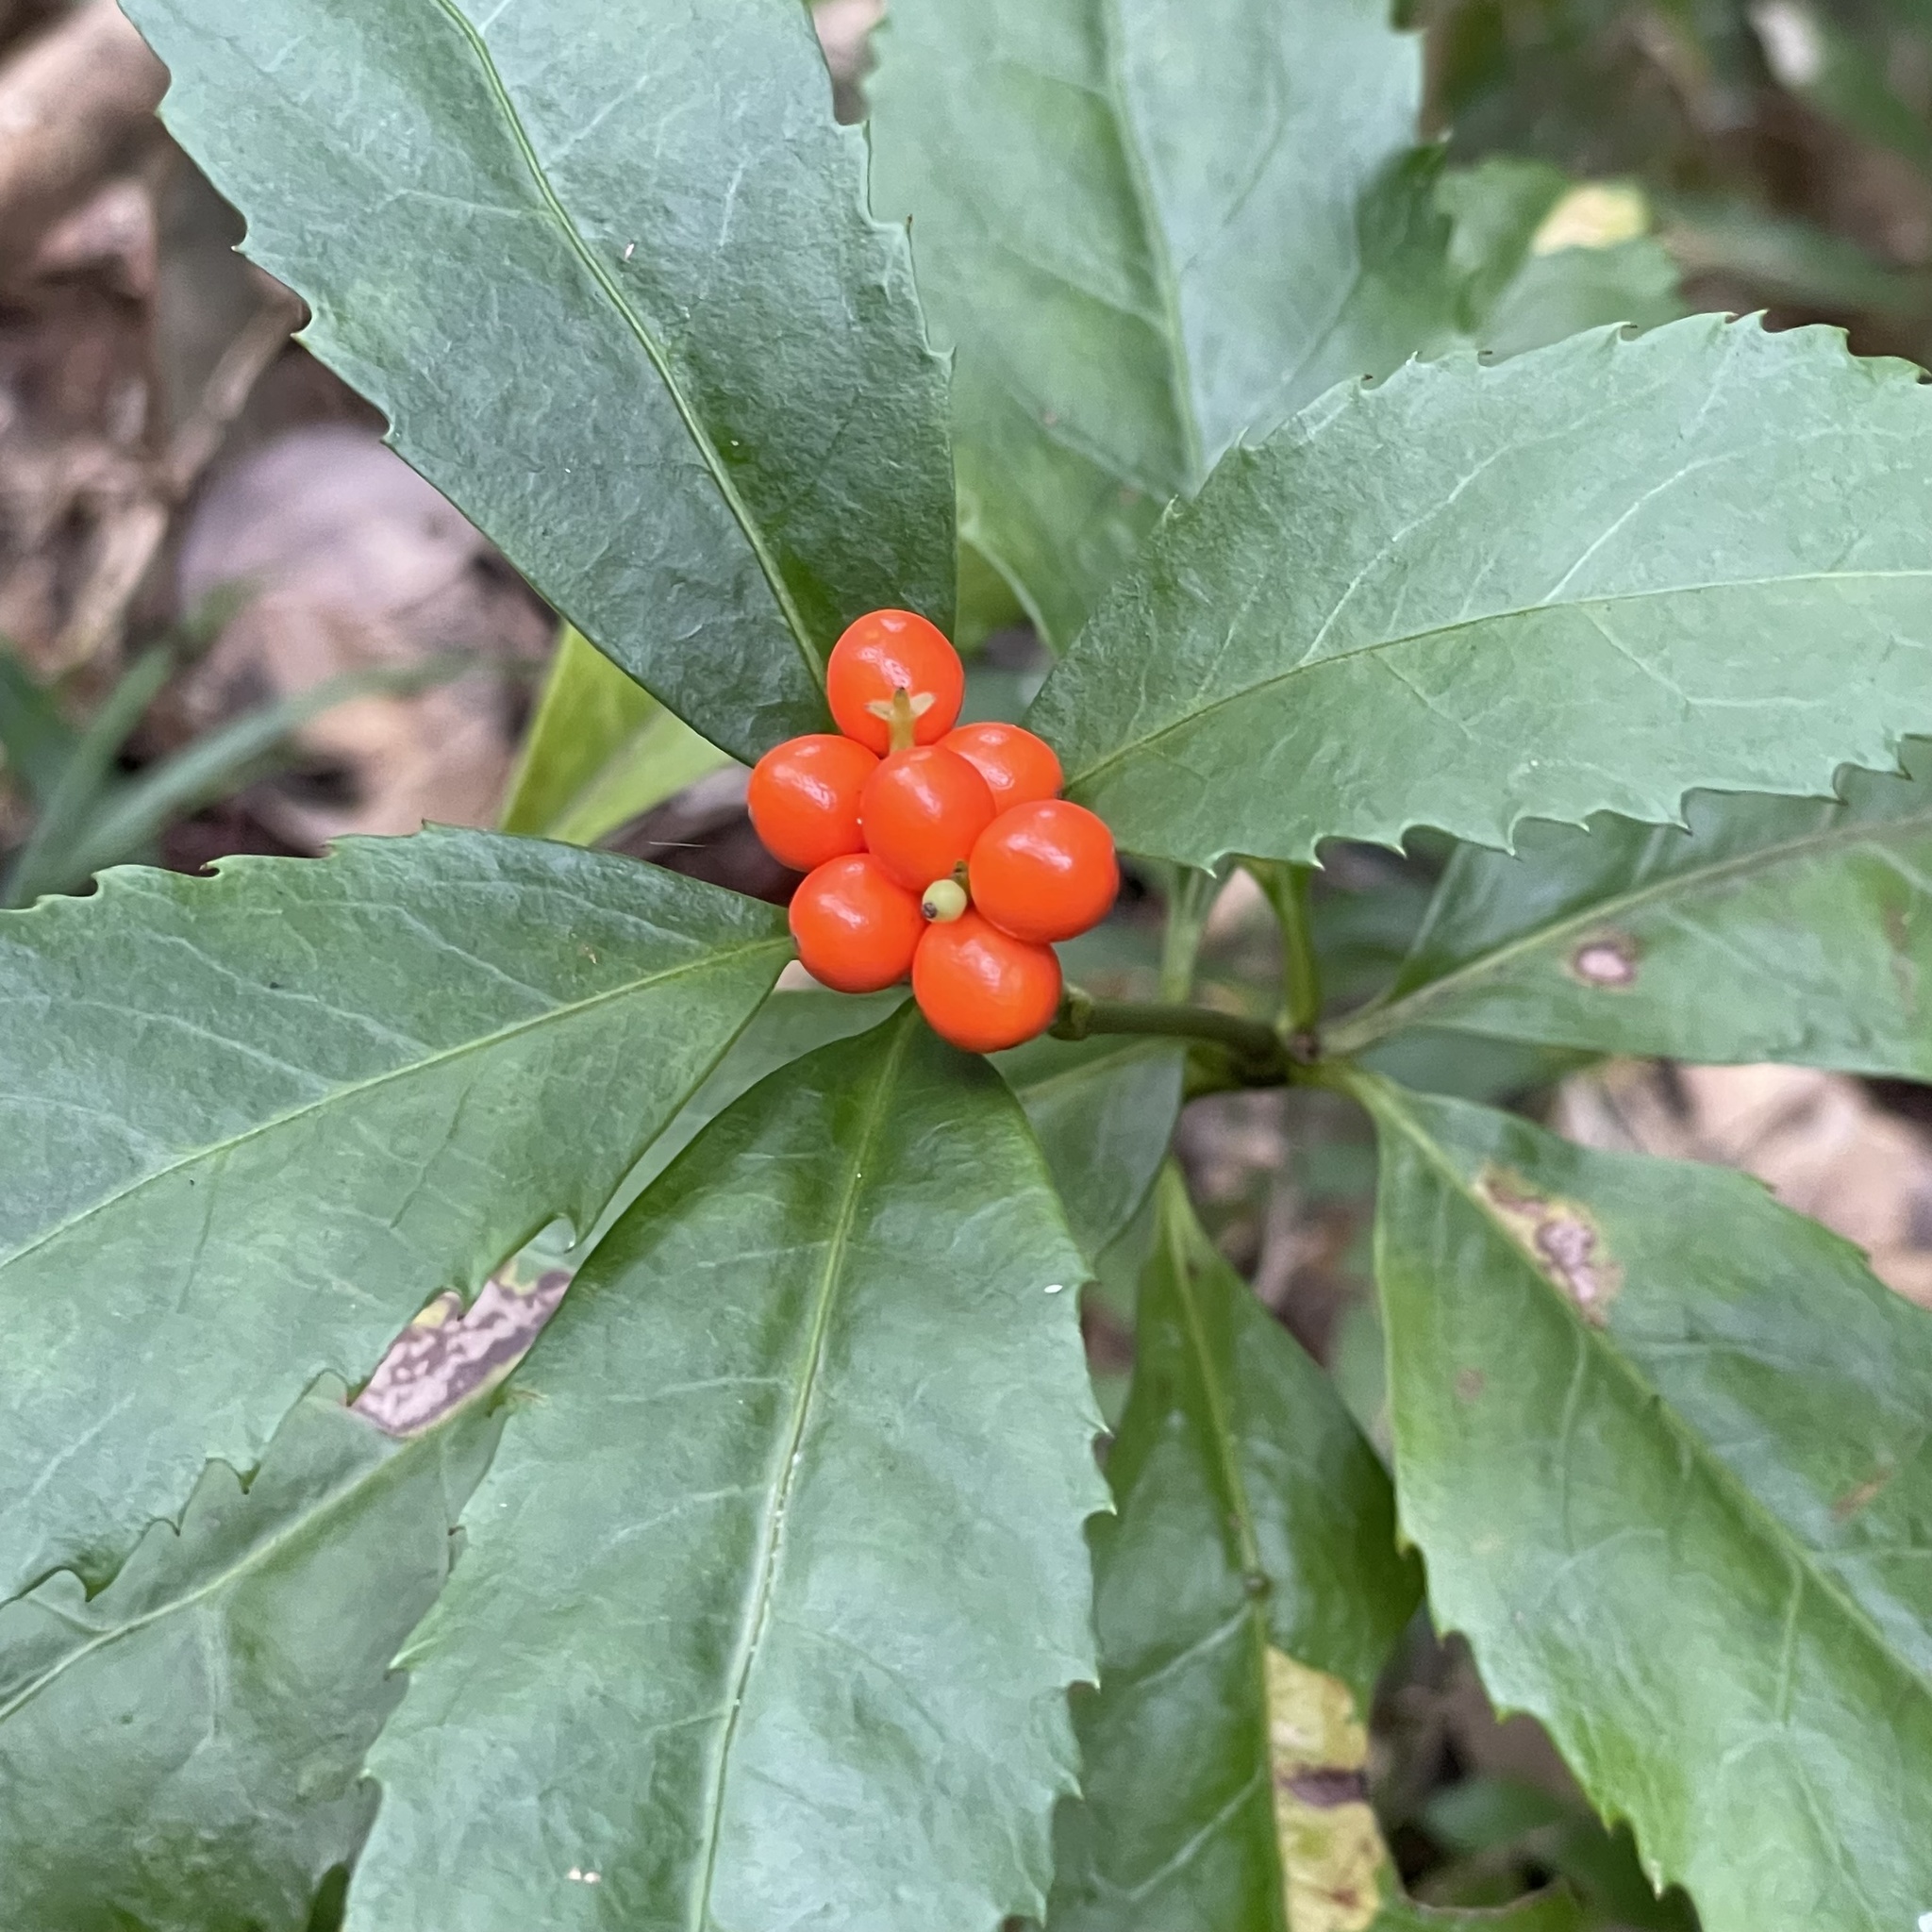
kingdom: Plantae
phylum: Tracheophyta
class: Magnoliopsida
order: Chloranthales
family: Chloranthaceae
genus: Sarcandra
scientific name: Sarcandra glabra
